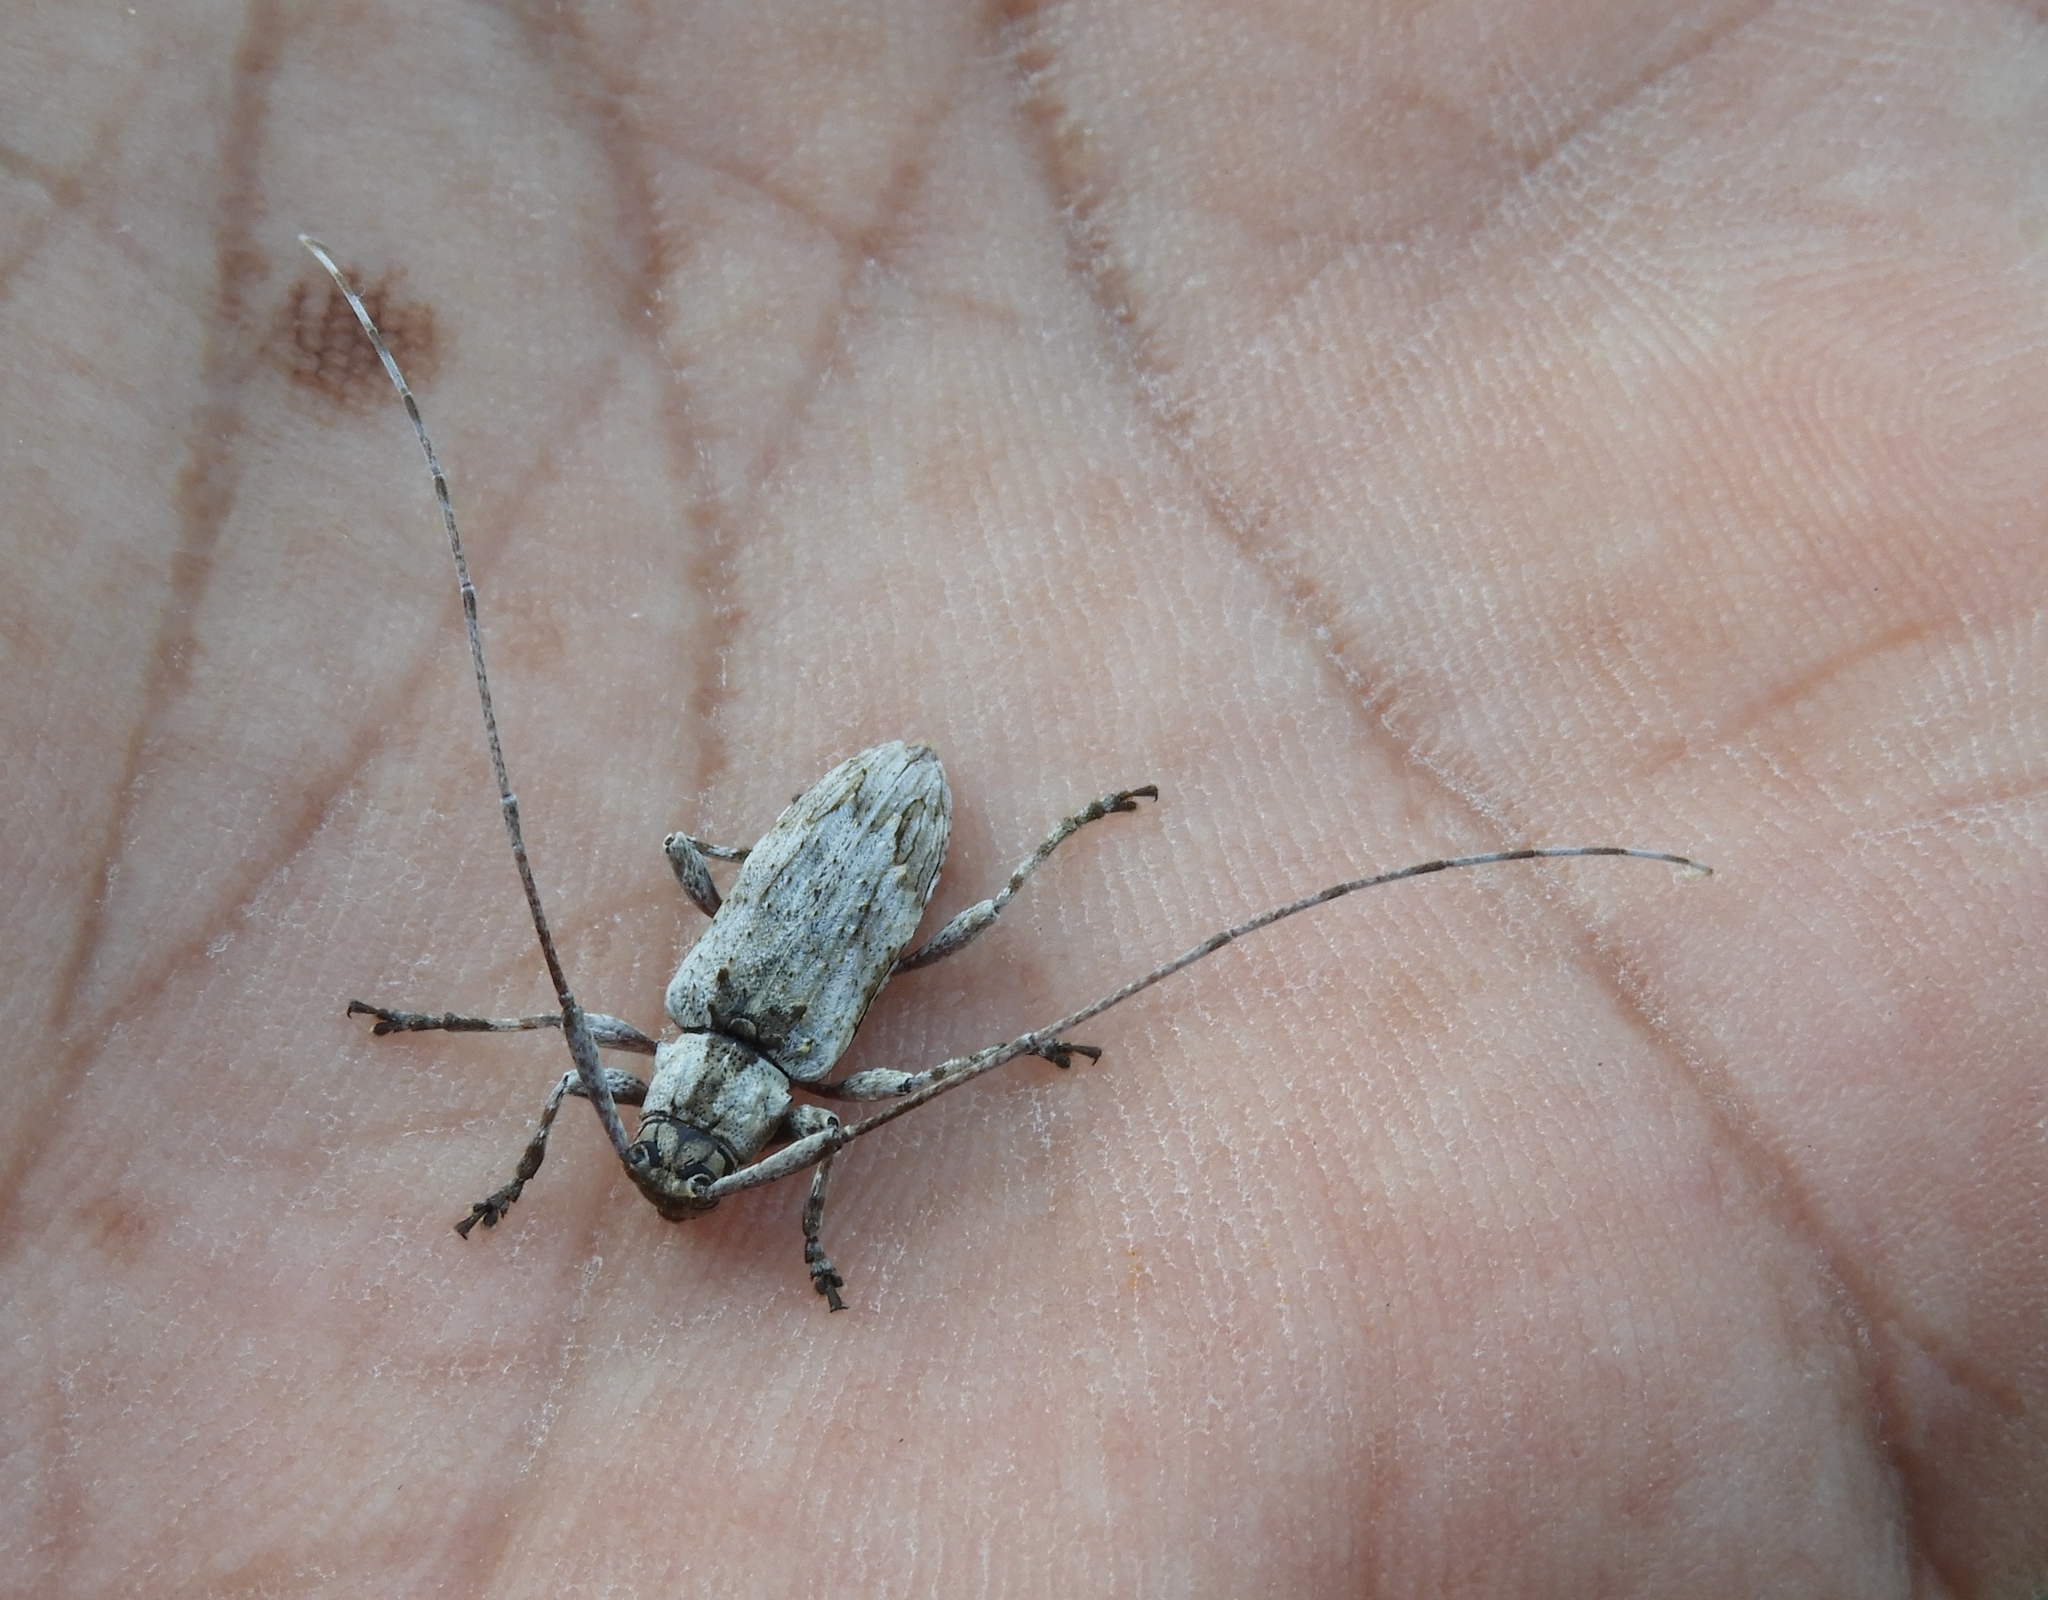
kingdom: Animalia
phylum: Arthropoda
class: Insecta
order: Coleoptera
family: Cerambycidae
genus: Mecotetartus
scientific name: Mecotetartus antennatus
